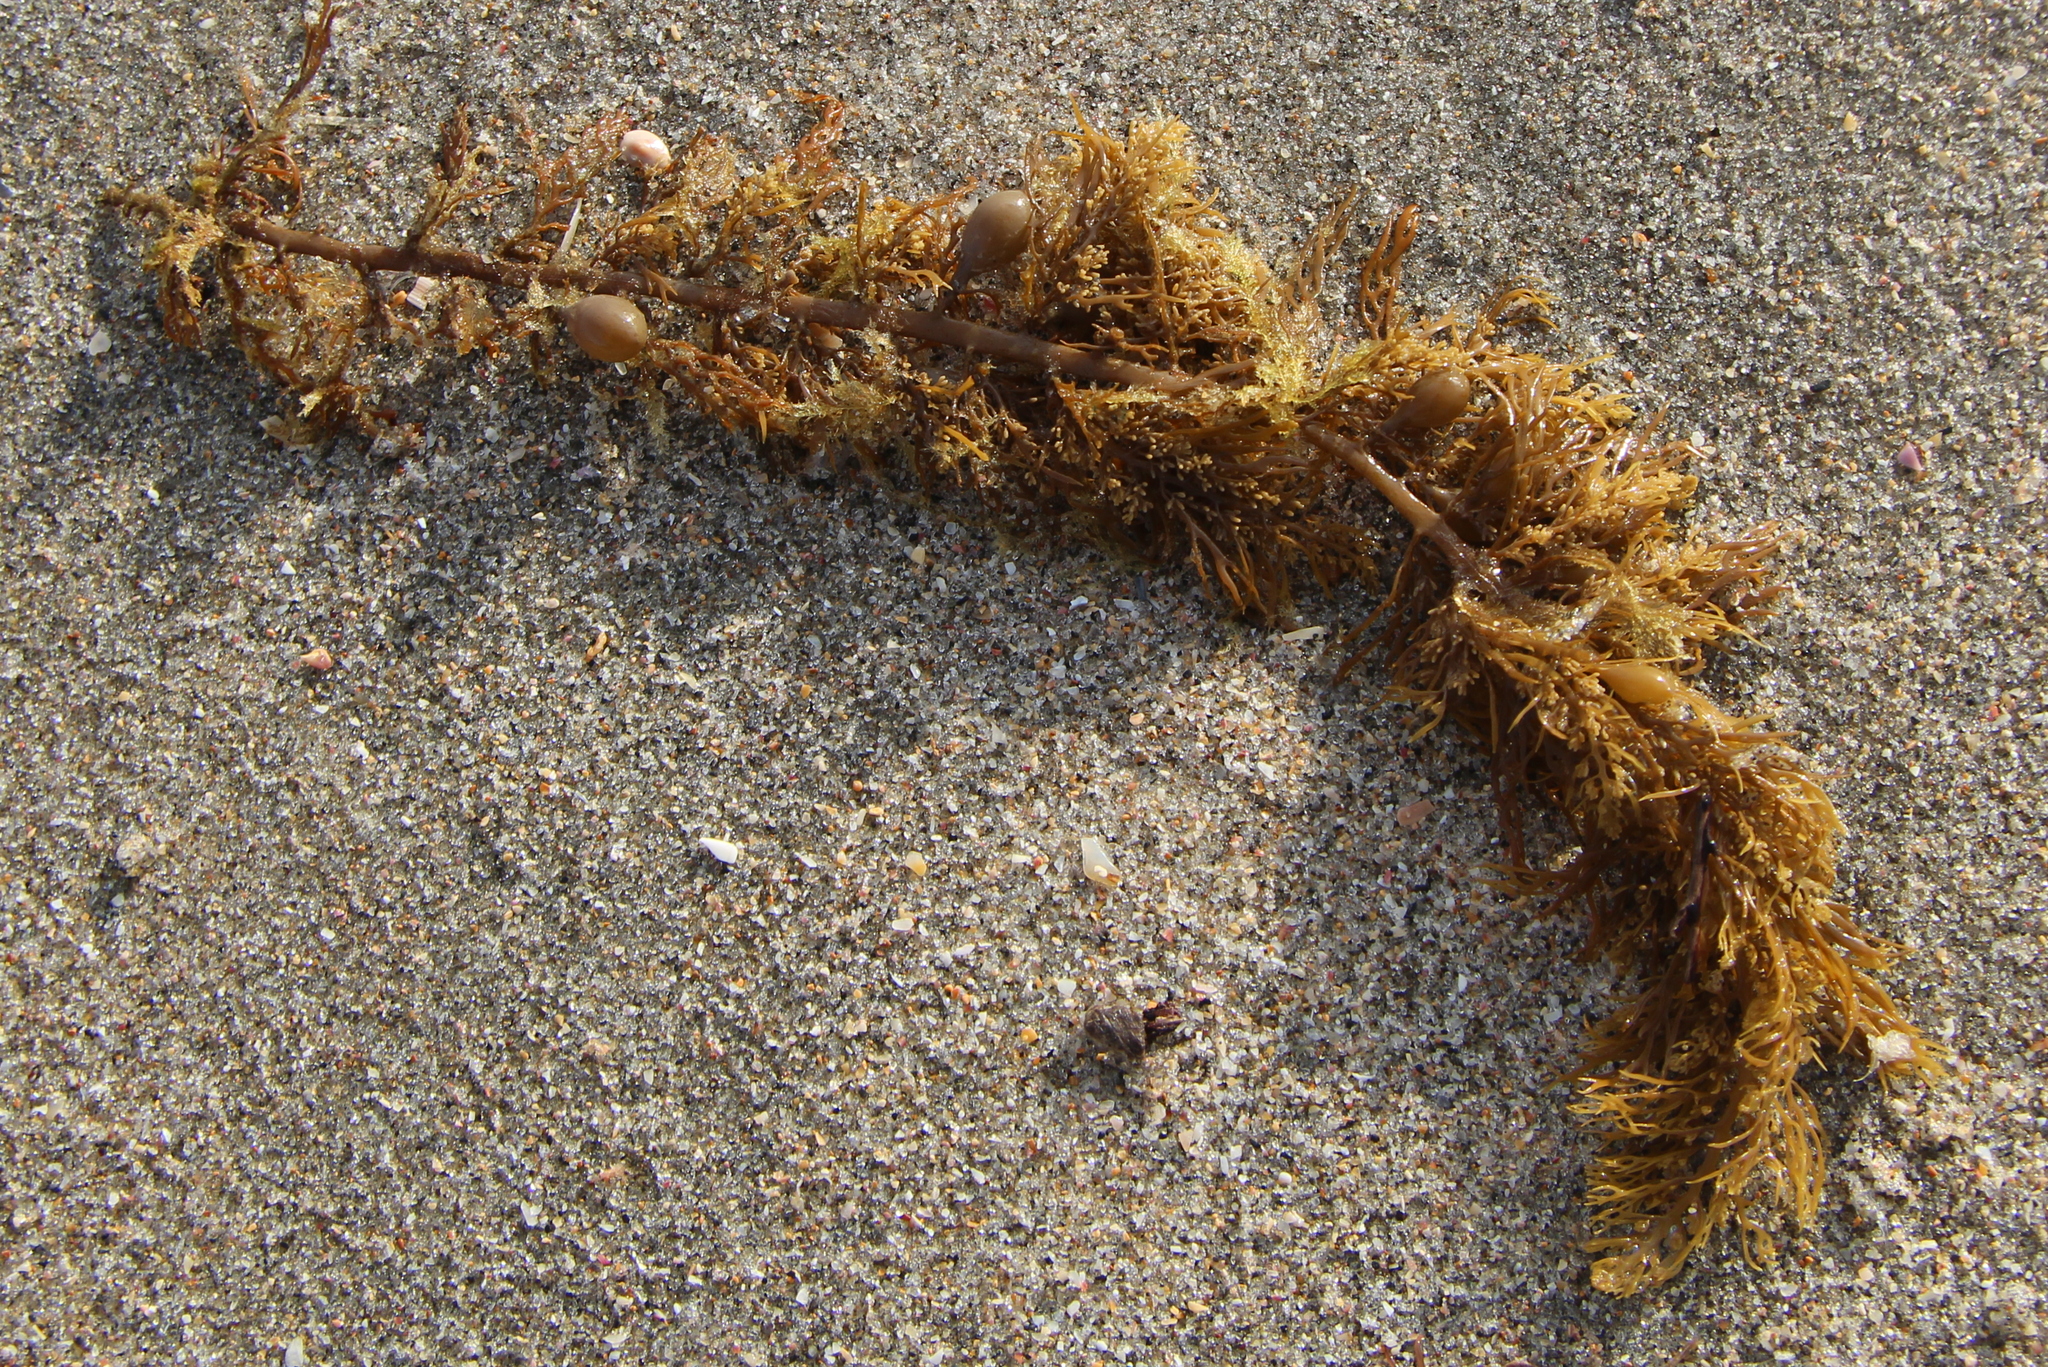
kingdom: Chromista
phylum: Ochrophyta
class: Phaeophyceae
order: Fucales
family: Sargassaceae
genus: Carpophyllum
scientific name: Carpophyllum plumosum
